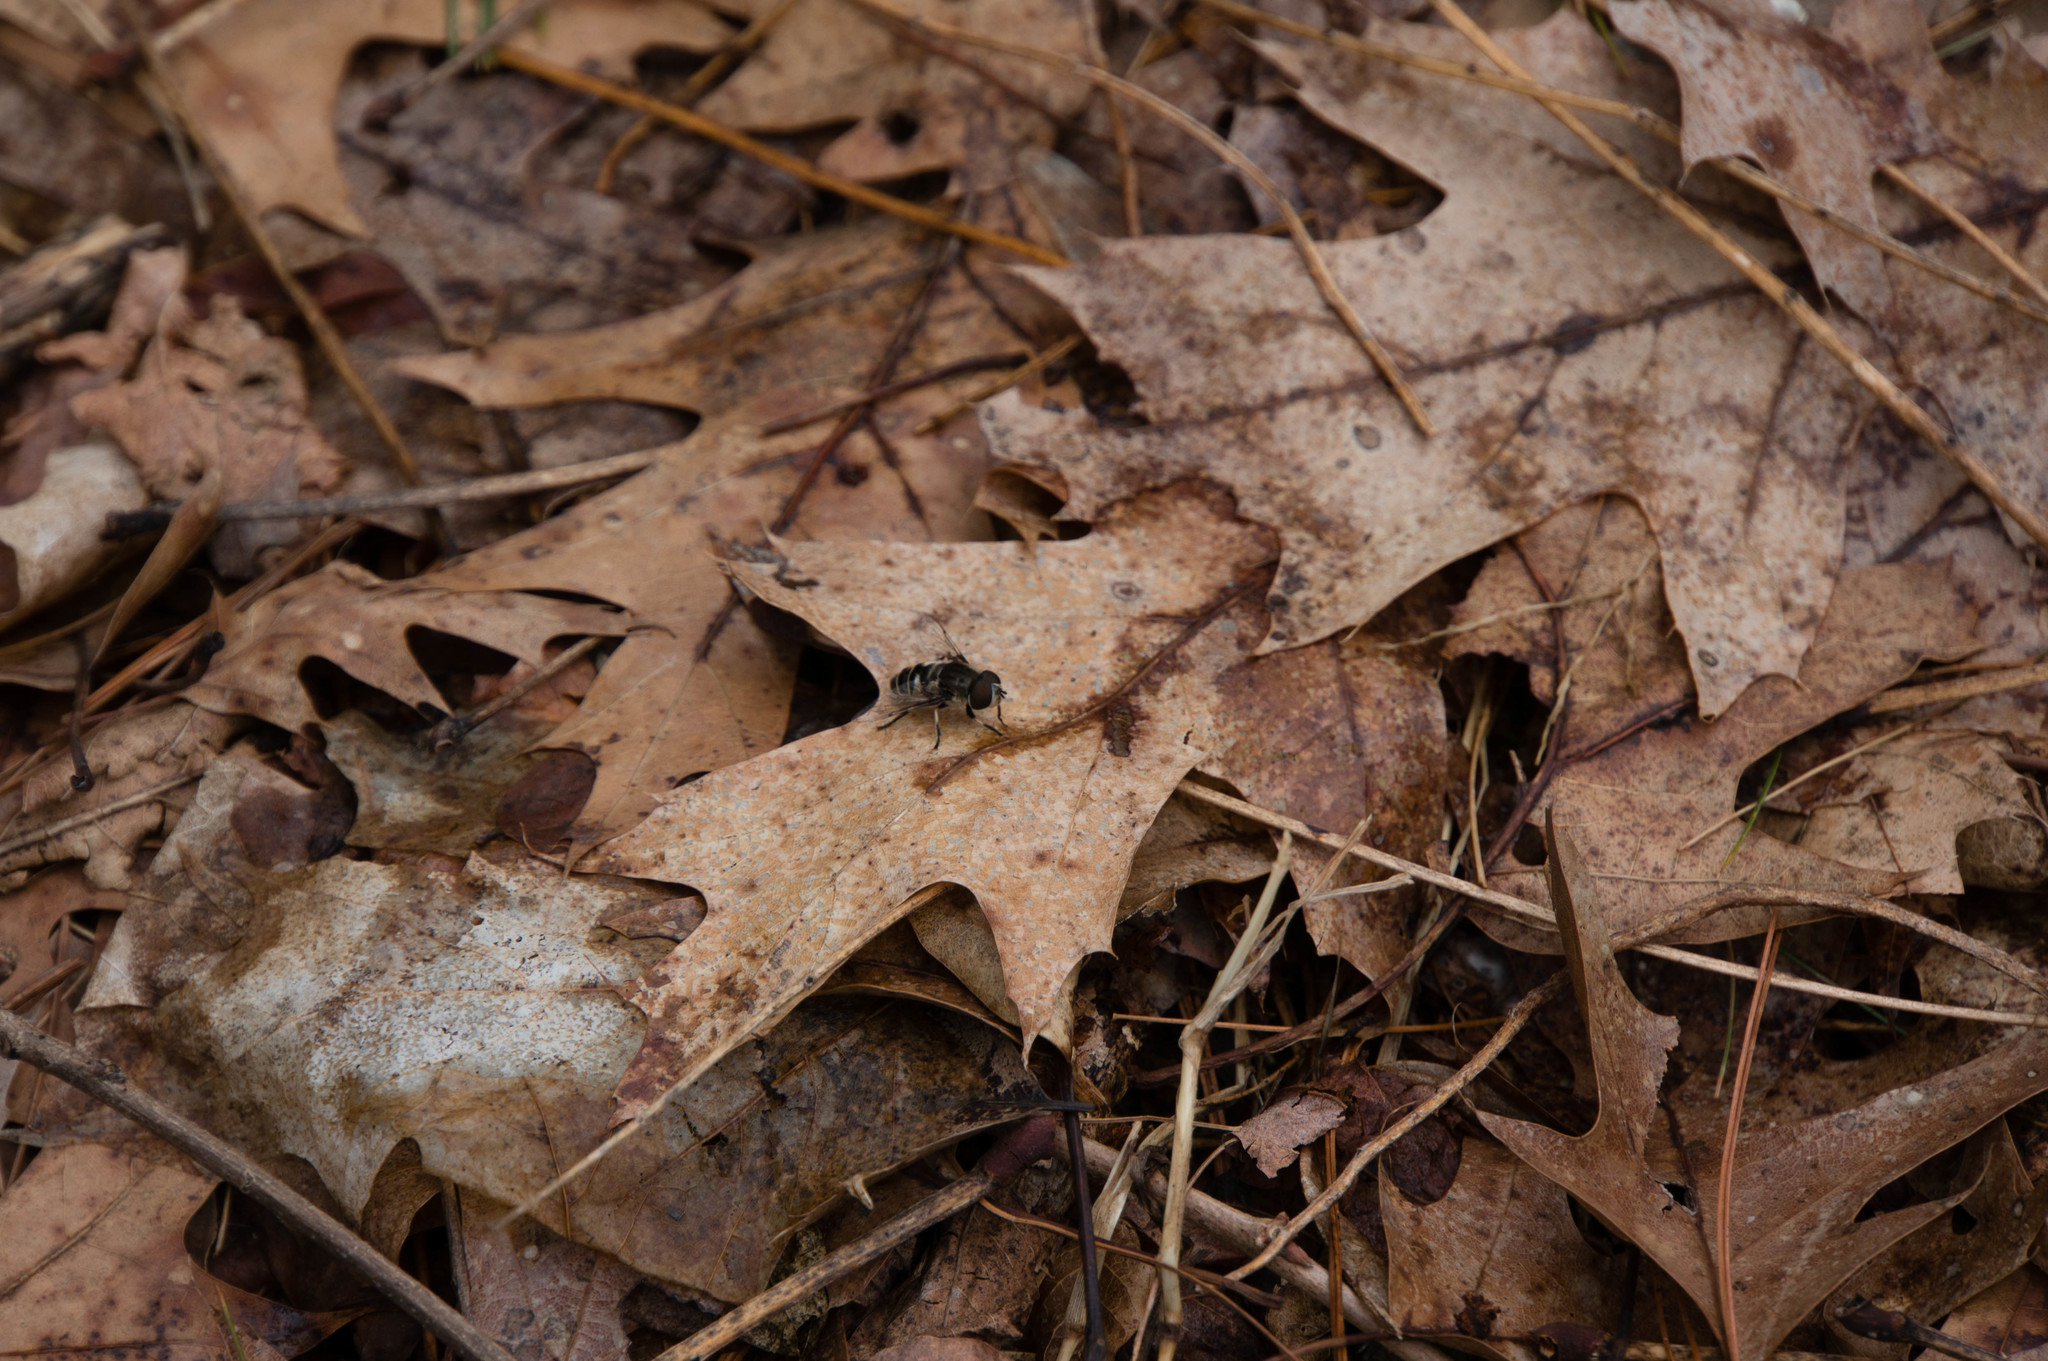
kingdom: Animalia
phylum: Arthropoda
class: Insecta
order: Diptera
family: Syrphidae
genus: Eristalis
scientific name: Eristalis dimidiata
